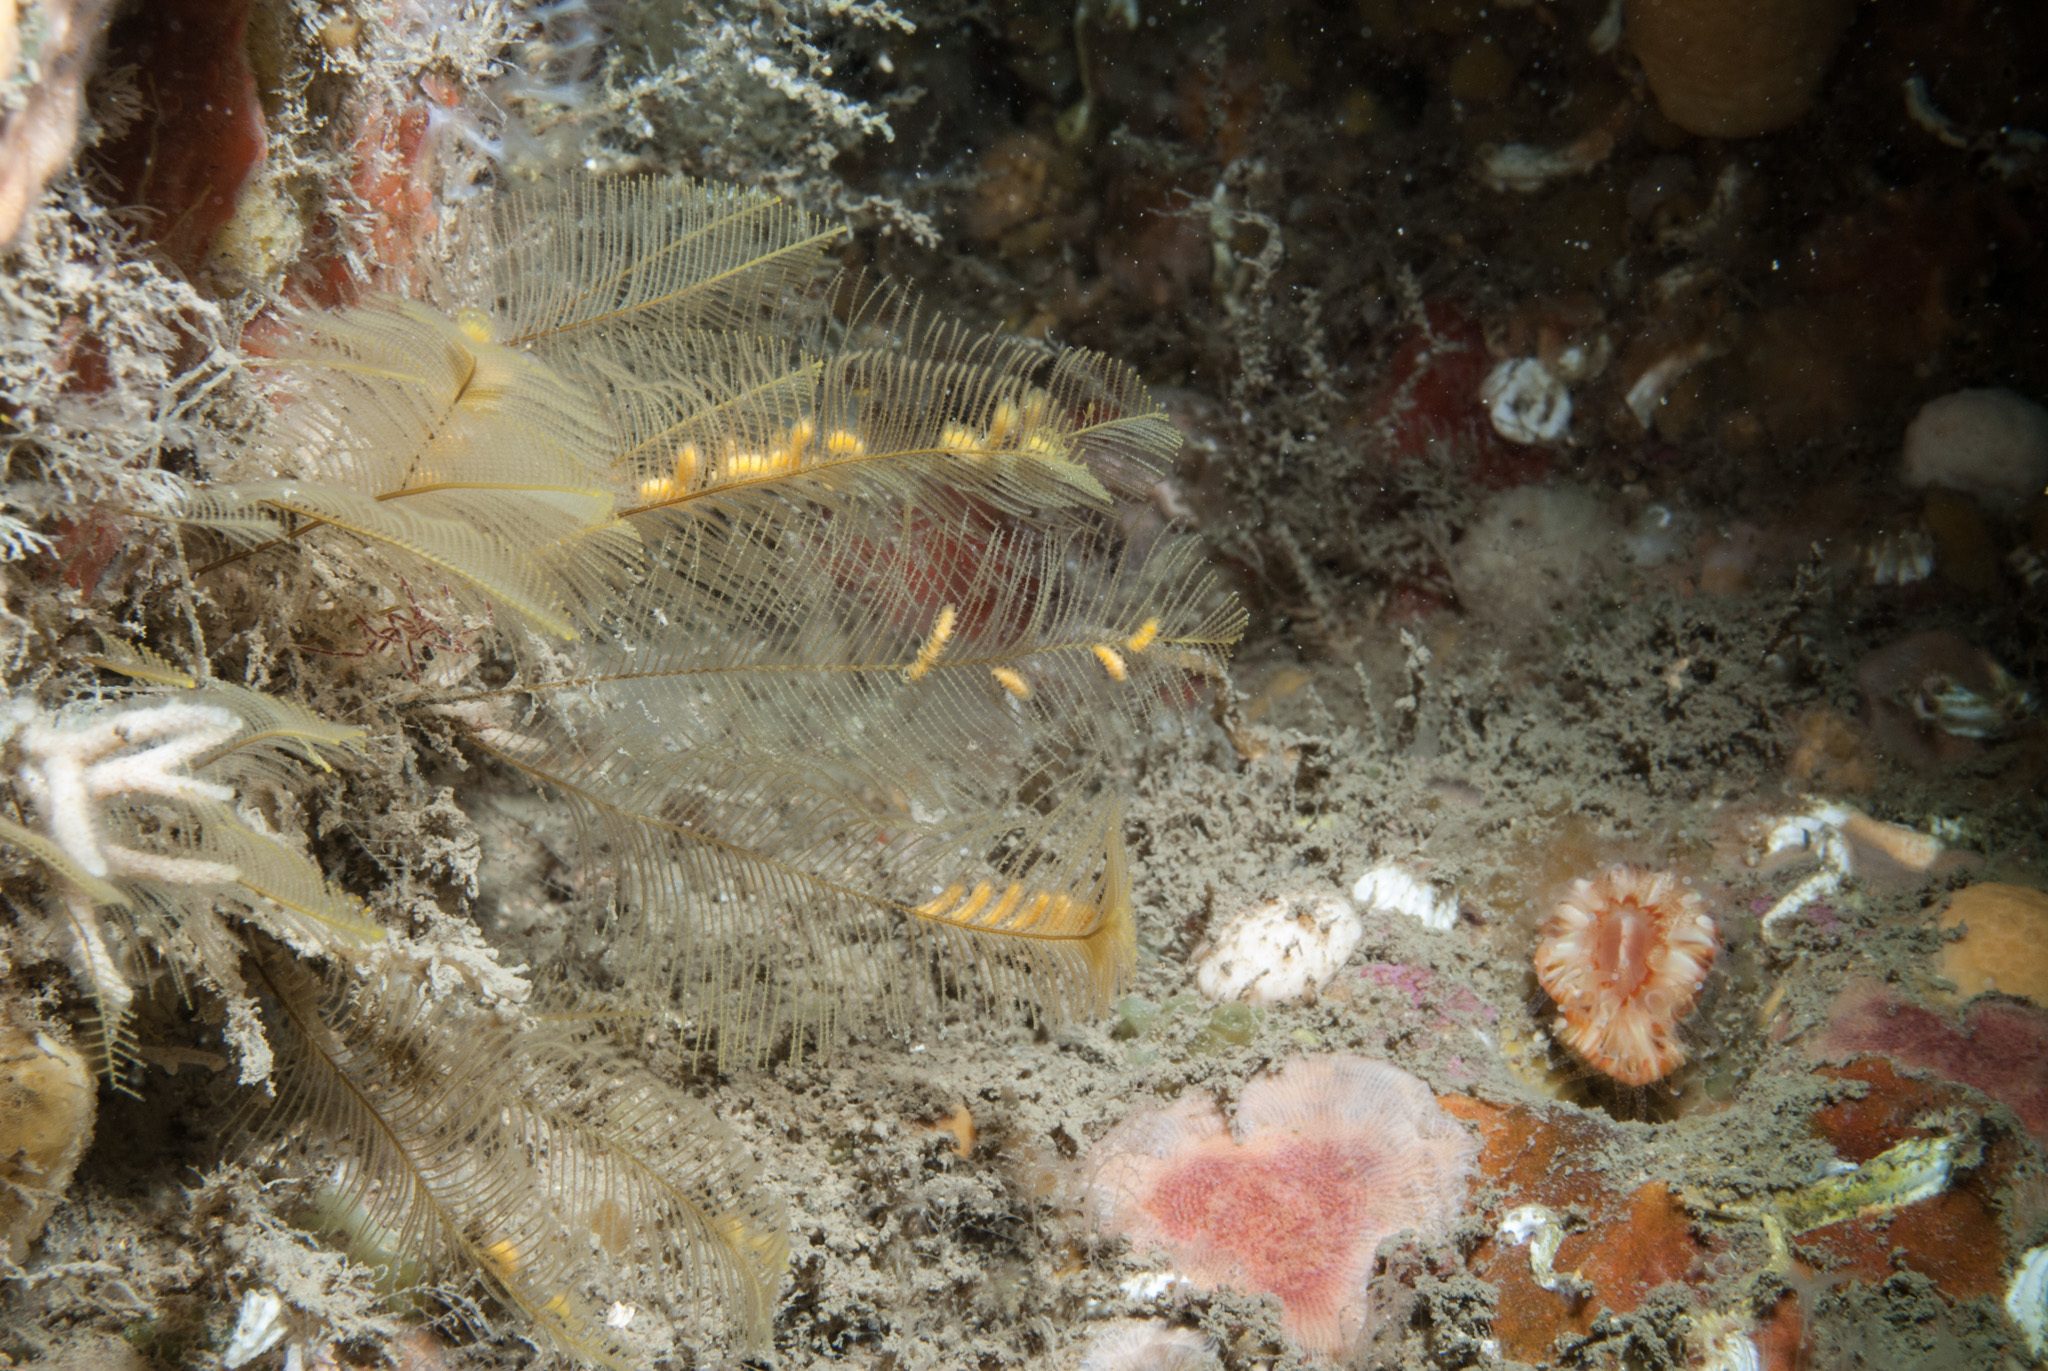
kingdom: Animalia
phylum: Cnidaria
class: Hydrozoa
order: Leptothecata
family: Aglaopheniidae
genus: Aglaophenia
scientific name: Aglaophenia tubulifera
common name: Plume hydroid
